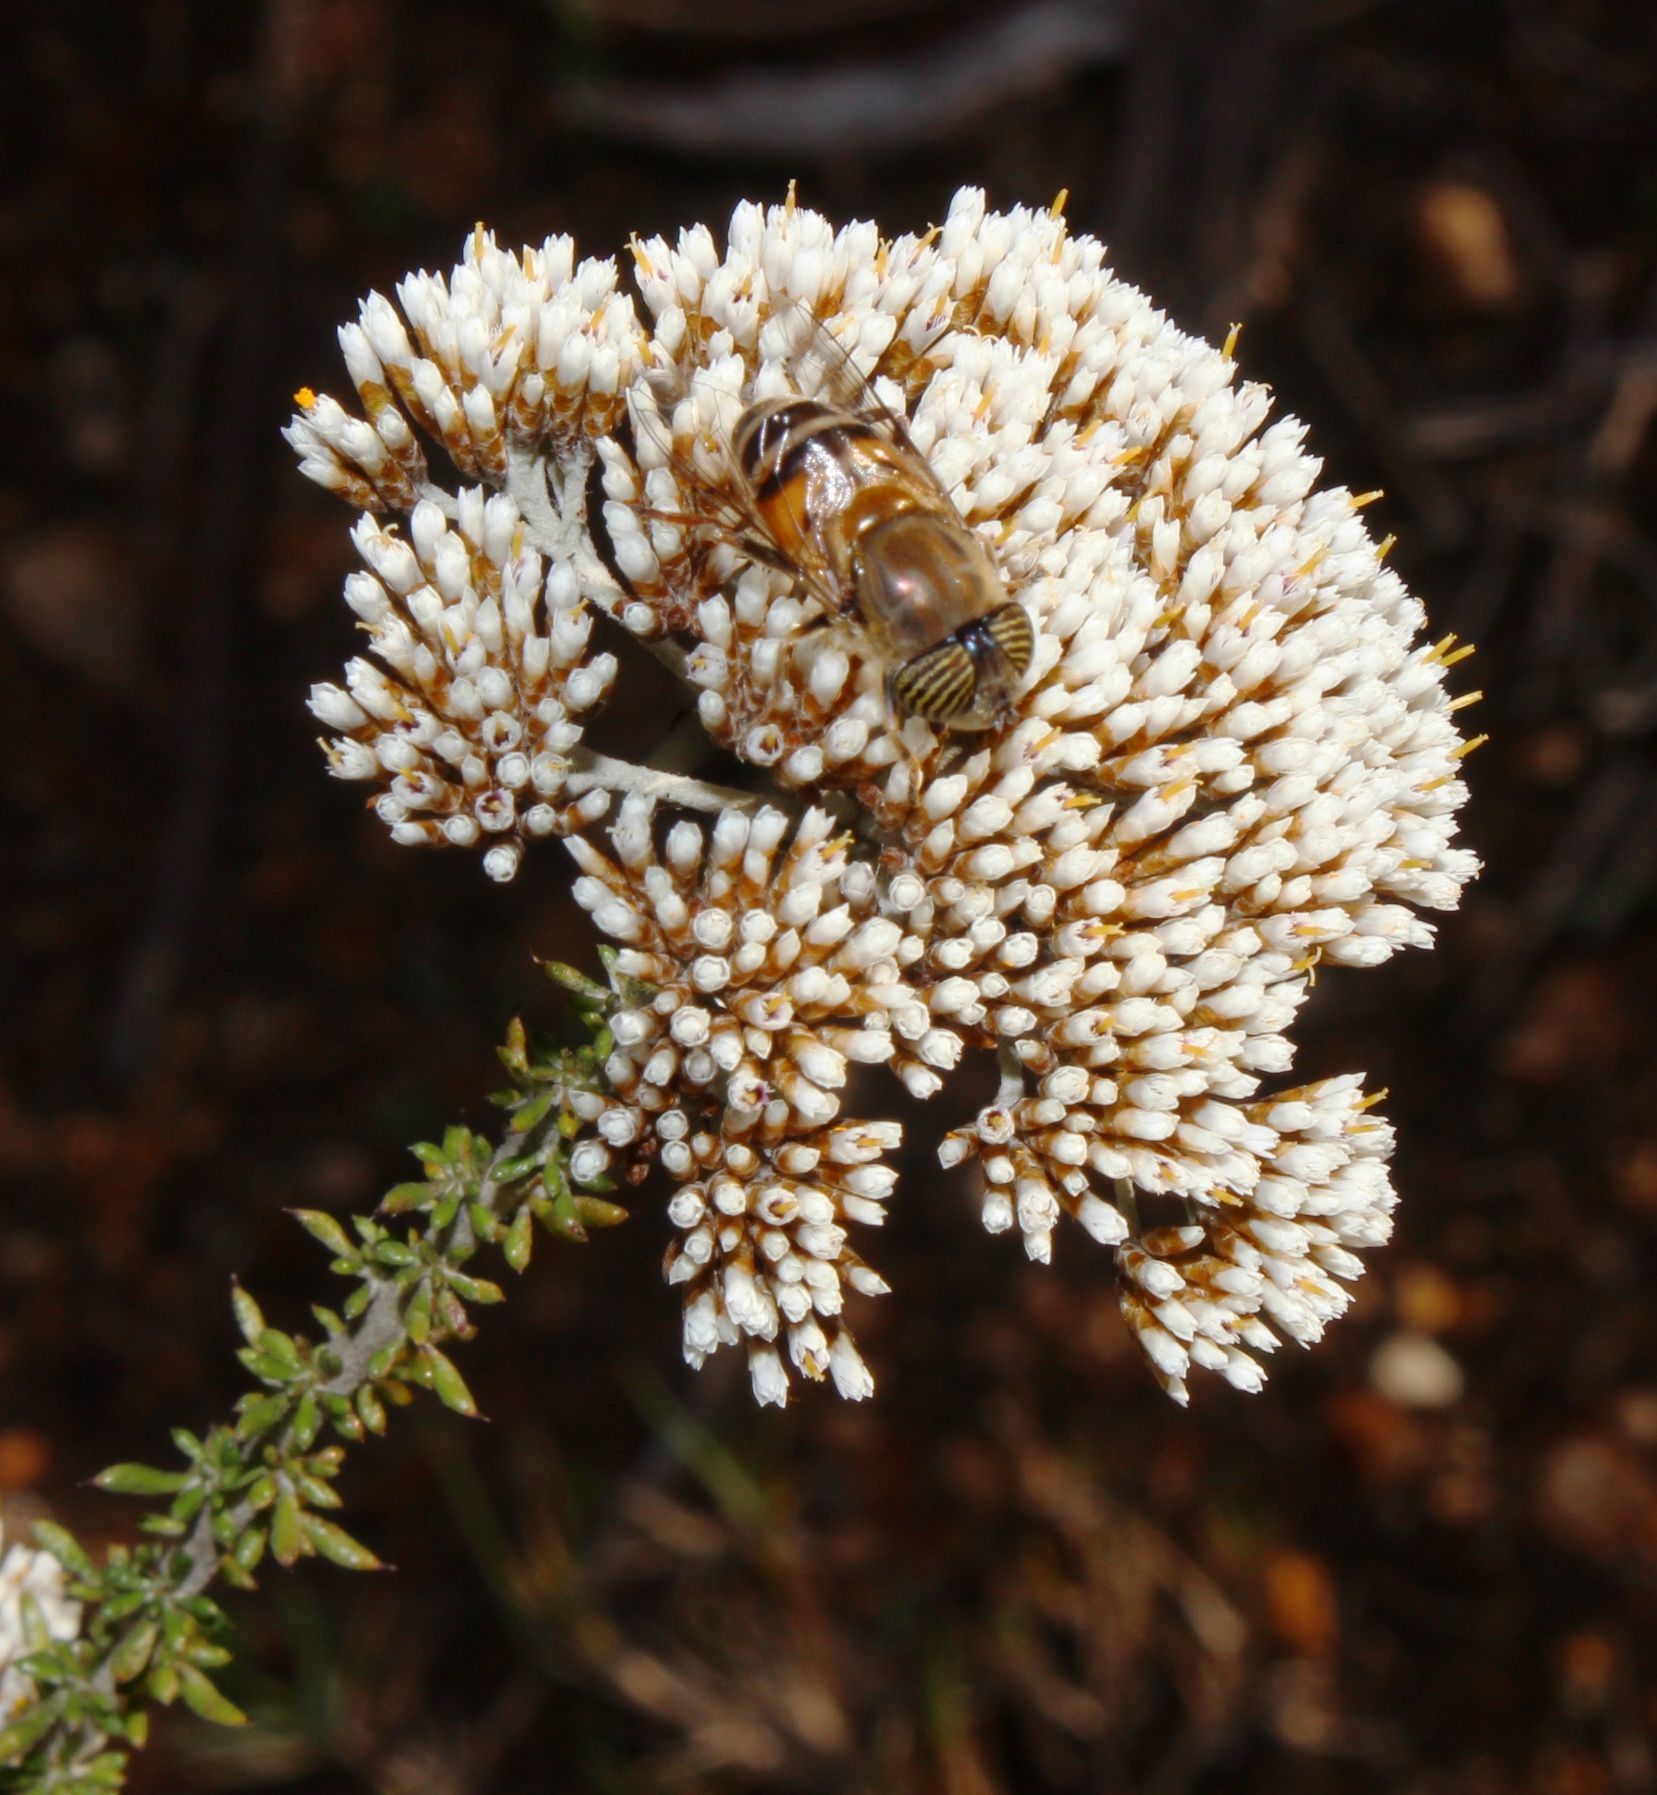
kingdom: Plantae
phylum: Tracheophyta
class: Magnoliopsida
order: Asterales
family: Asteraceae
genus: Metalasia
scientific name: Metalasia densa
